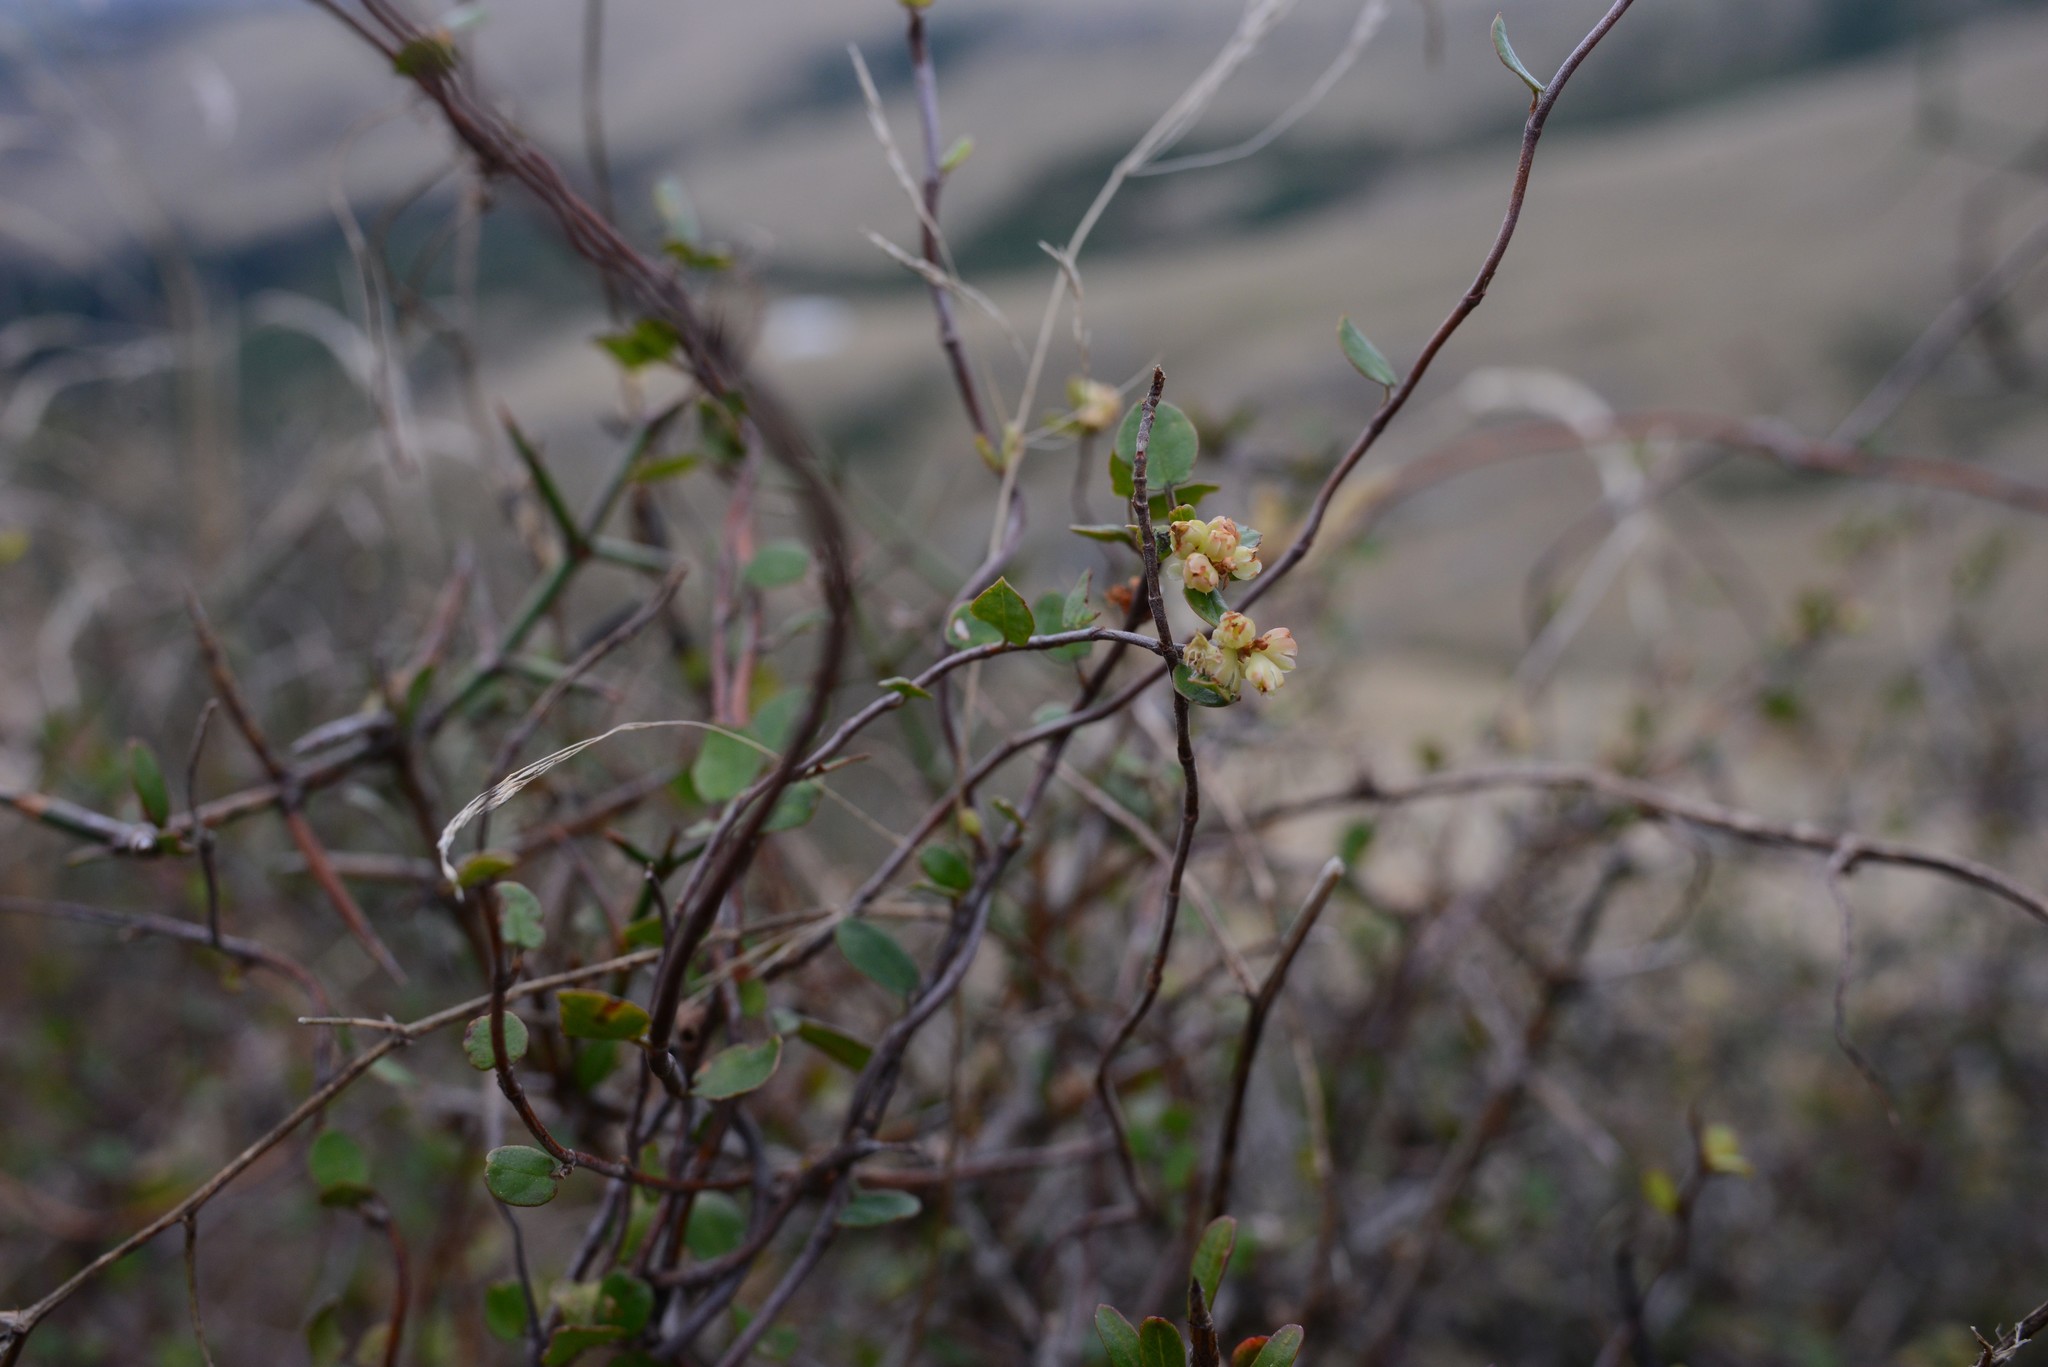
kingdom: Plantae
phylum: Tracheophyta
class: Magnoliopsida
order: Caryophyllales
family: Polygonaceae
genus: Muehlenbeckia
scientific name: Muehlenbeckia complexa
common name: Wireplant
